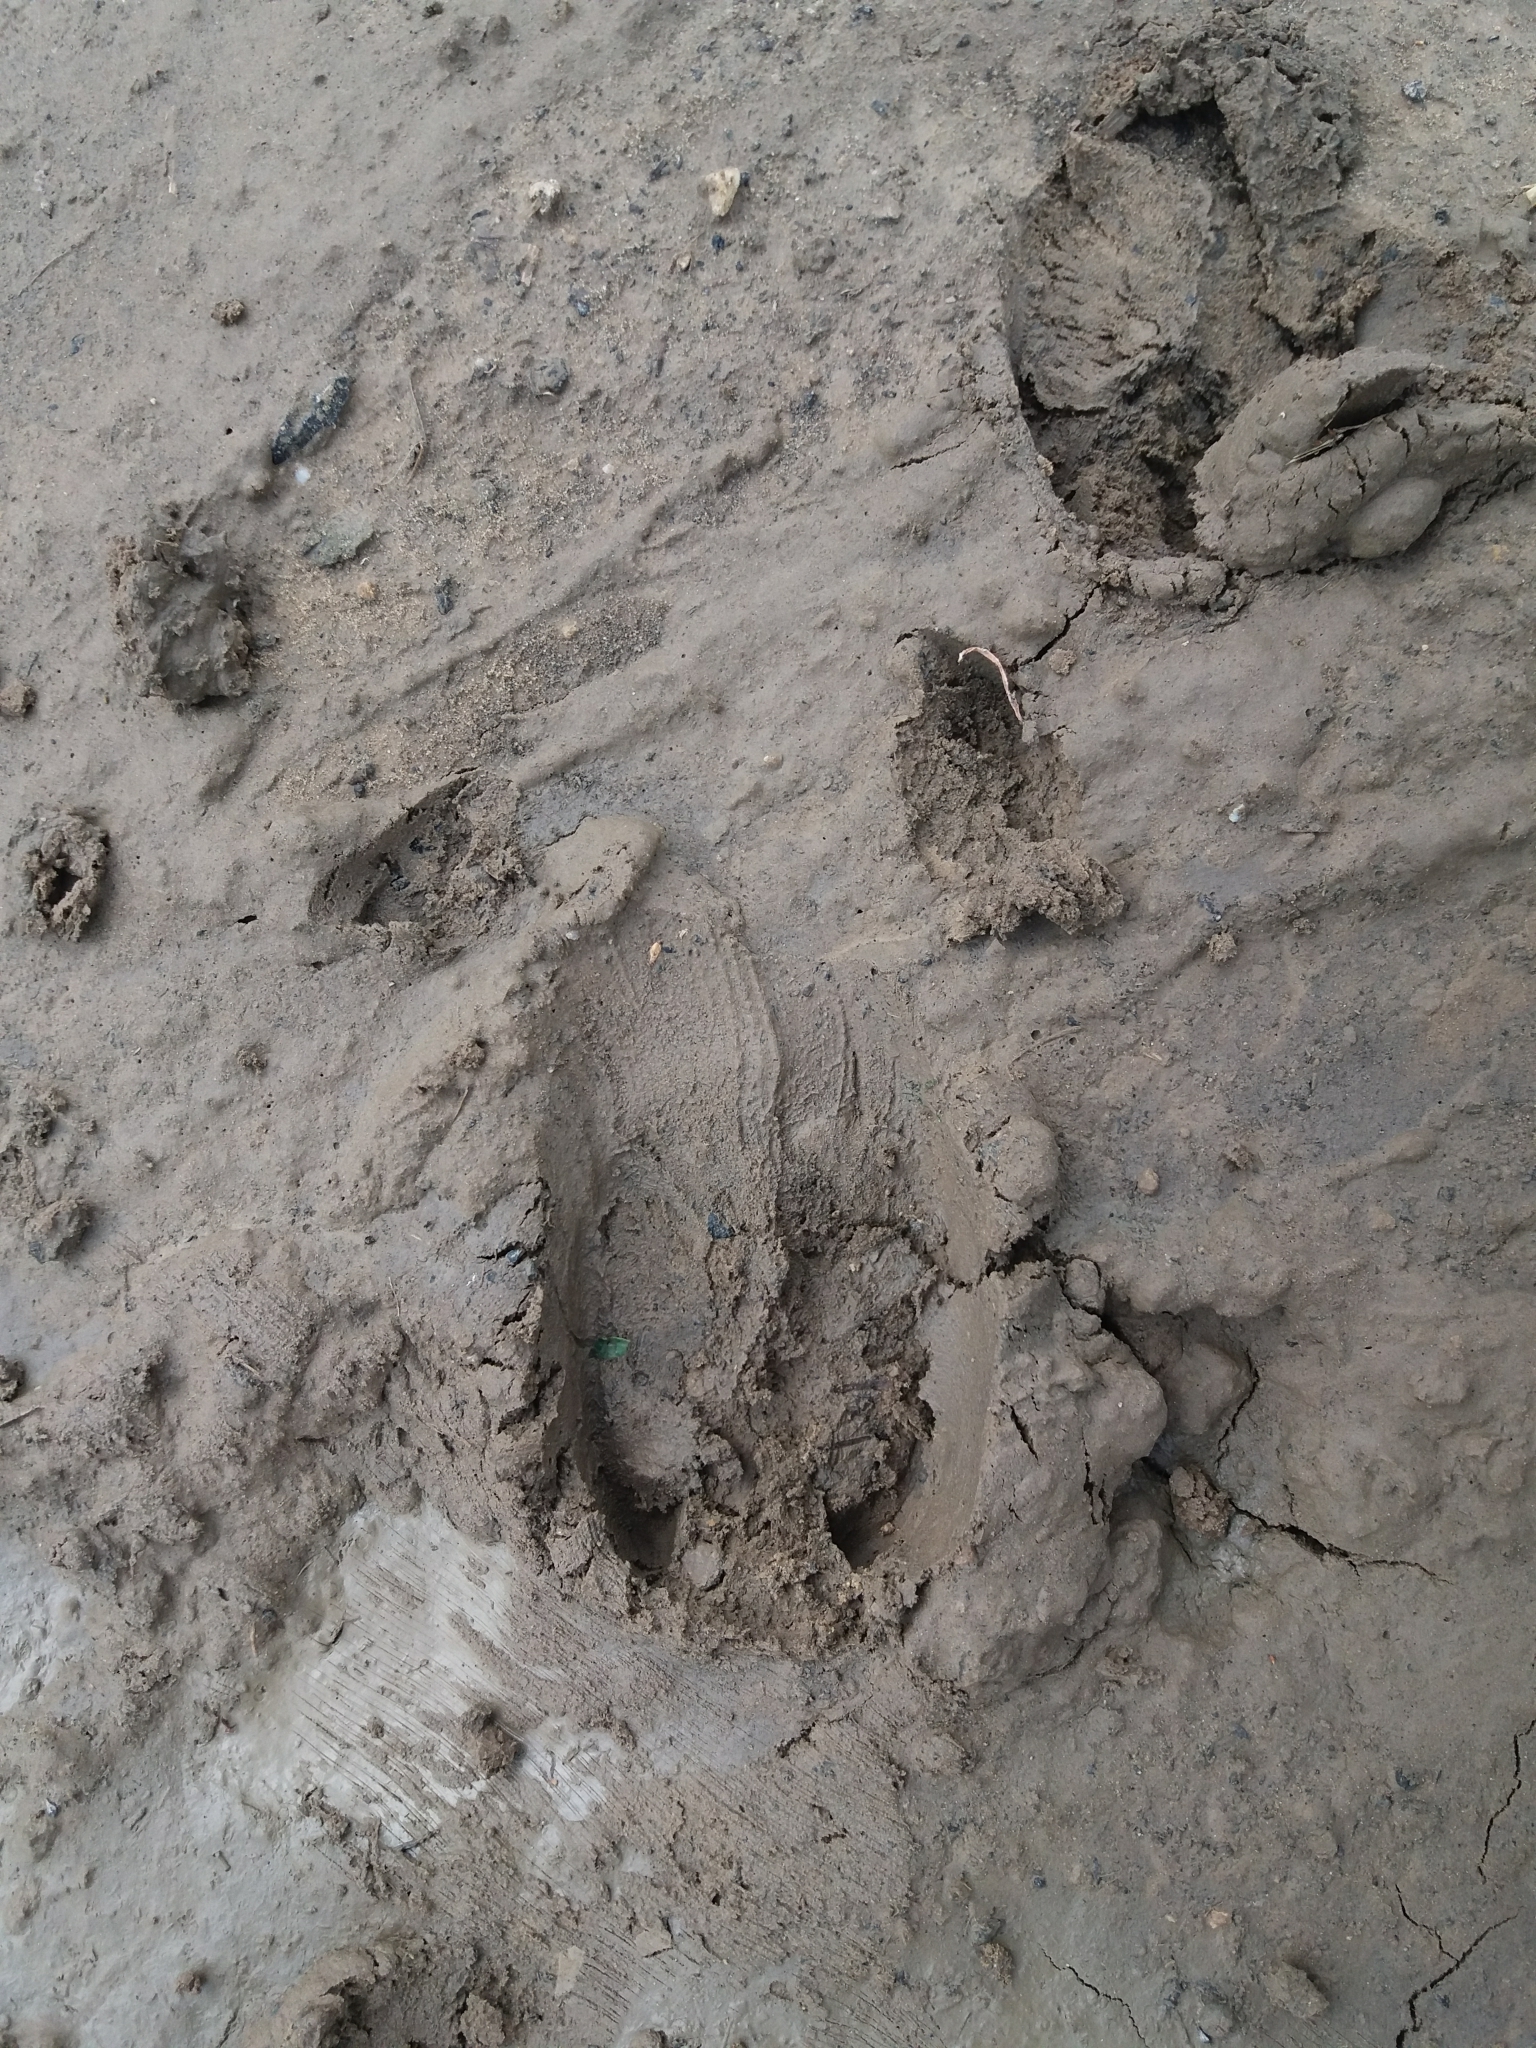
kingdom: Animalia
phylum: Chordata
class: Mammalia
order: Artiodactyla
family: Suidae
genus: Sus
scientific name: Sus scrofa
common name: Wild boar
